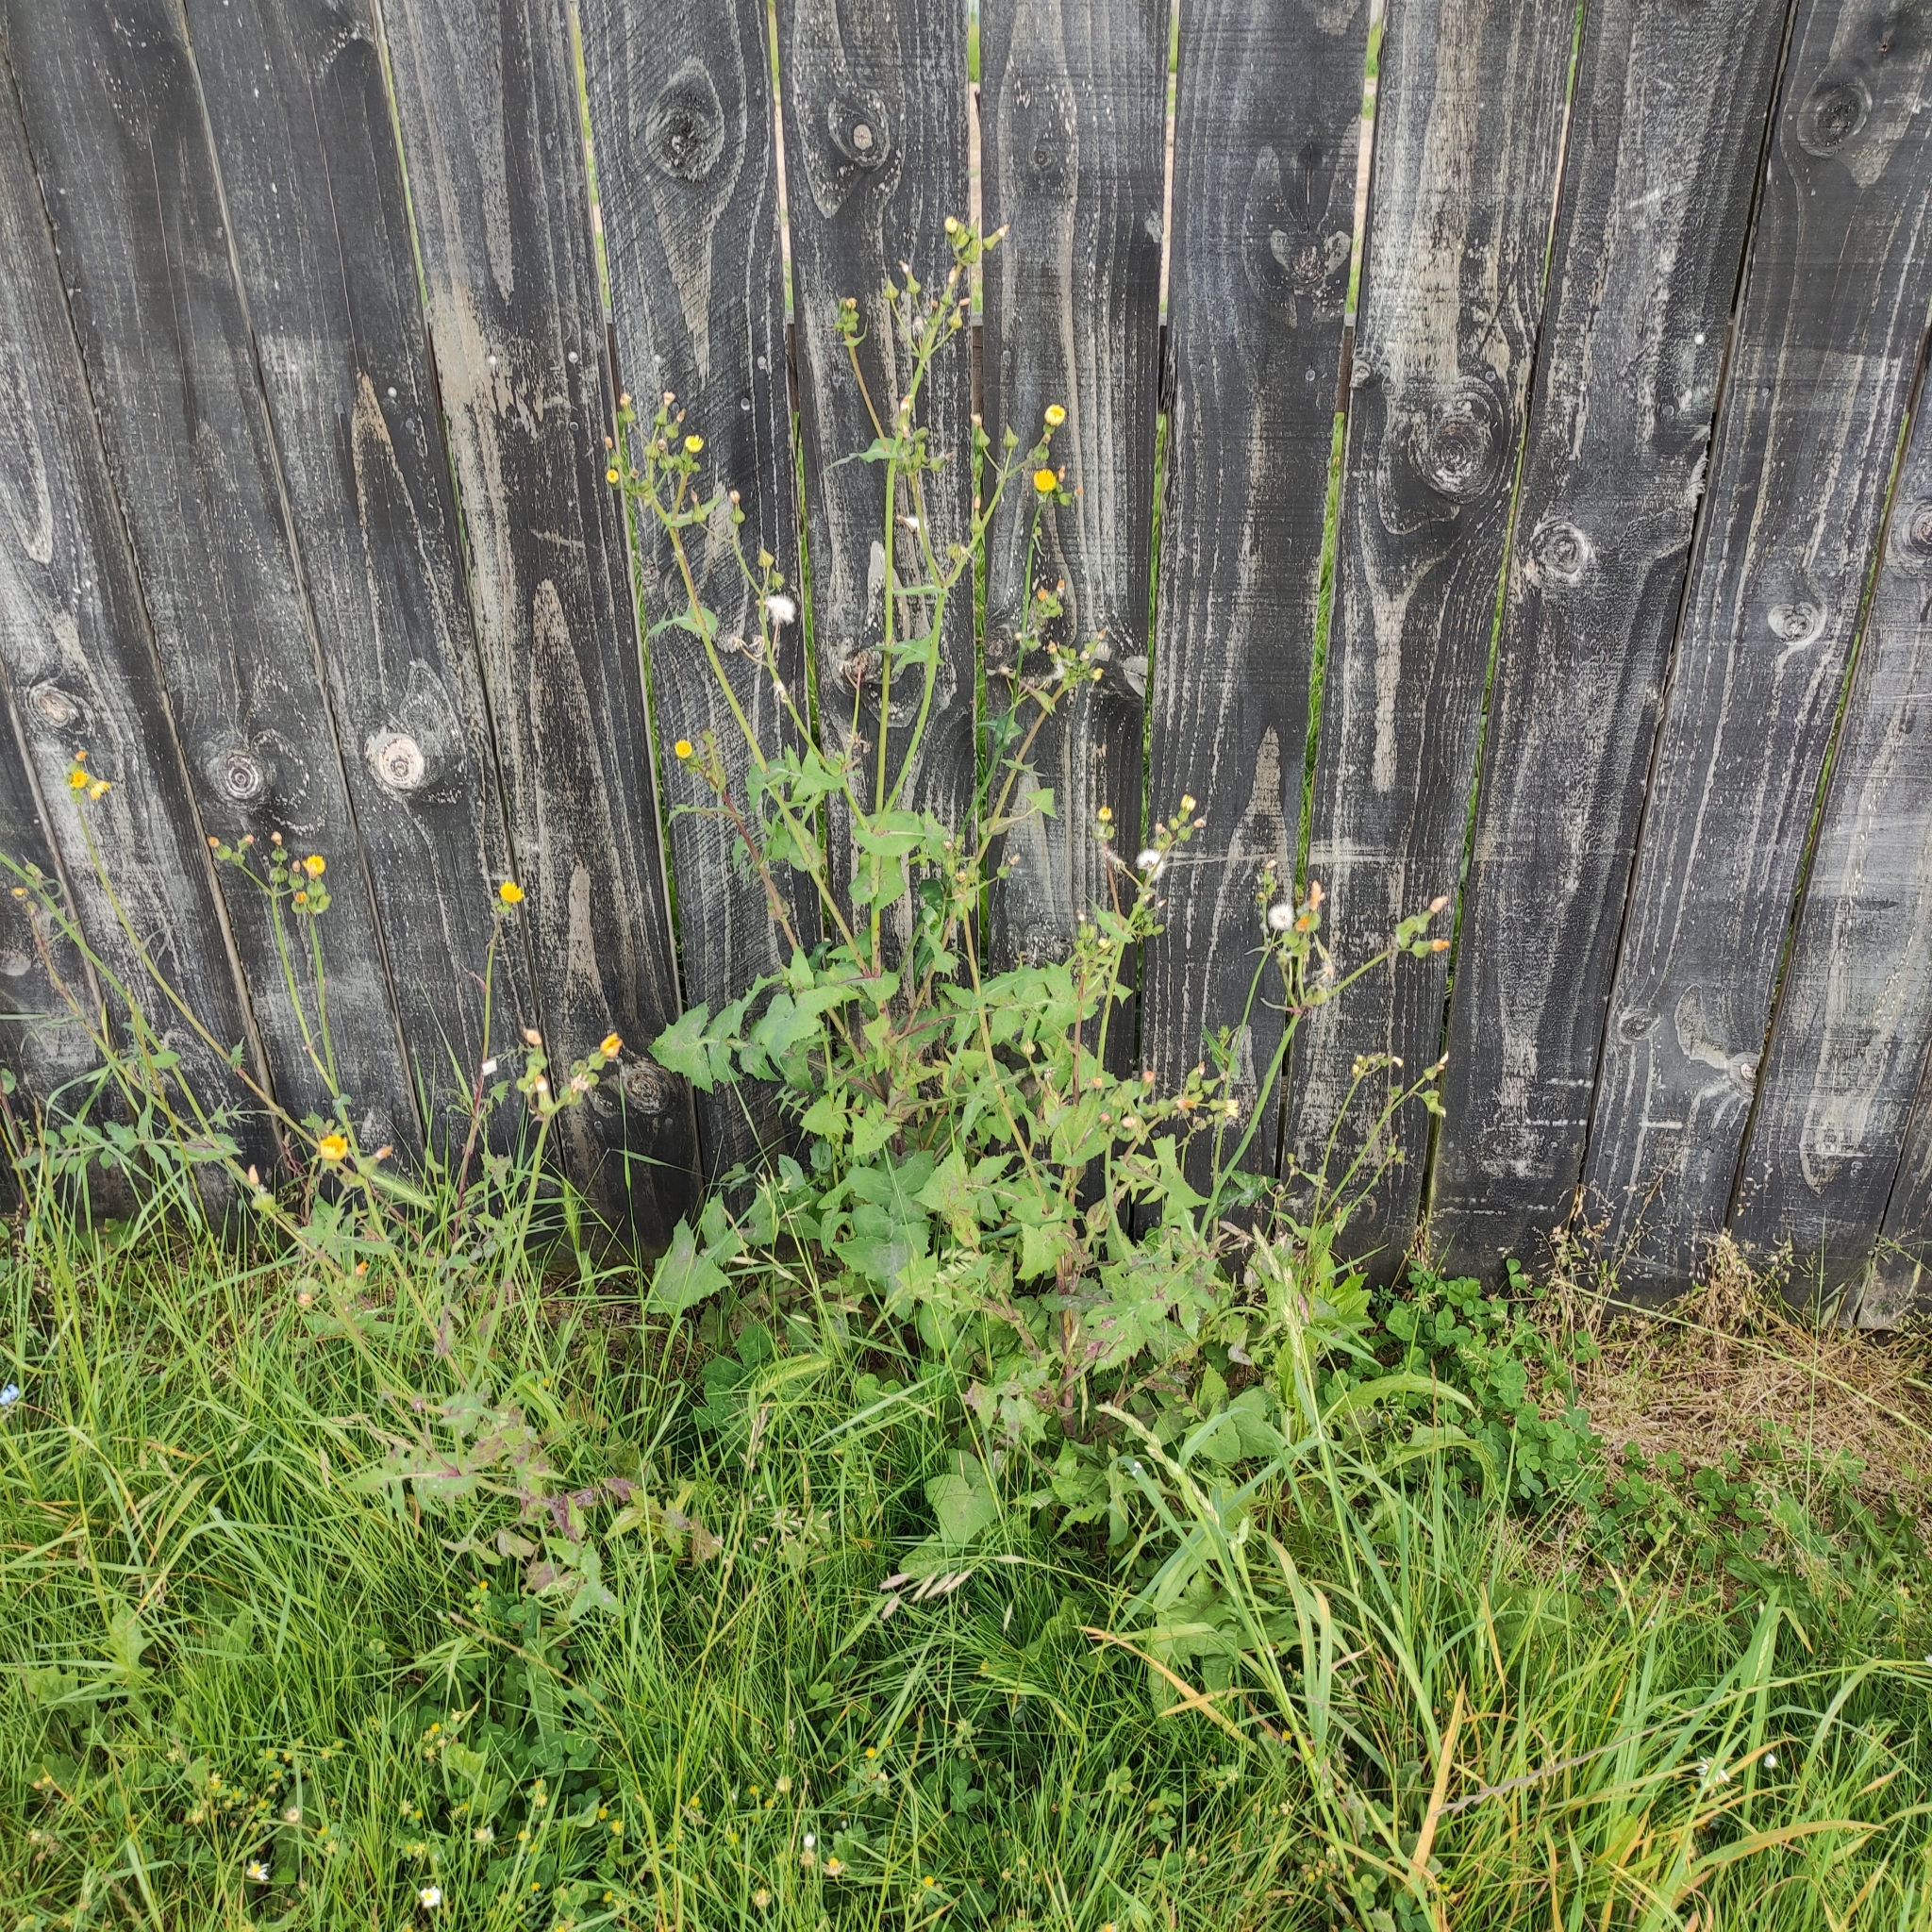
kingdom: Plantae
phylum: Tracheophyta
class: Magnoliopsida
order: Asterales
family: Asteraceae
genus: Sonchus
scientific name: Sonchus oleraceus
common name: Common sowthistle
